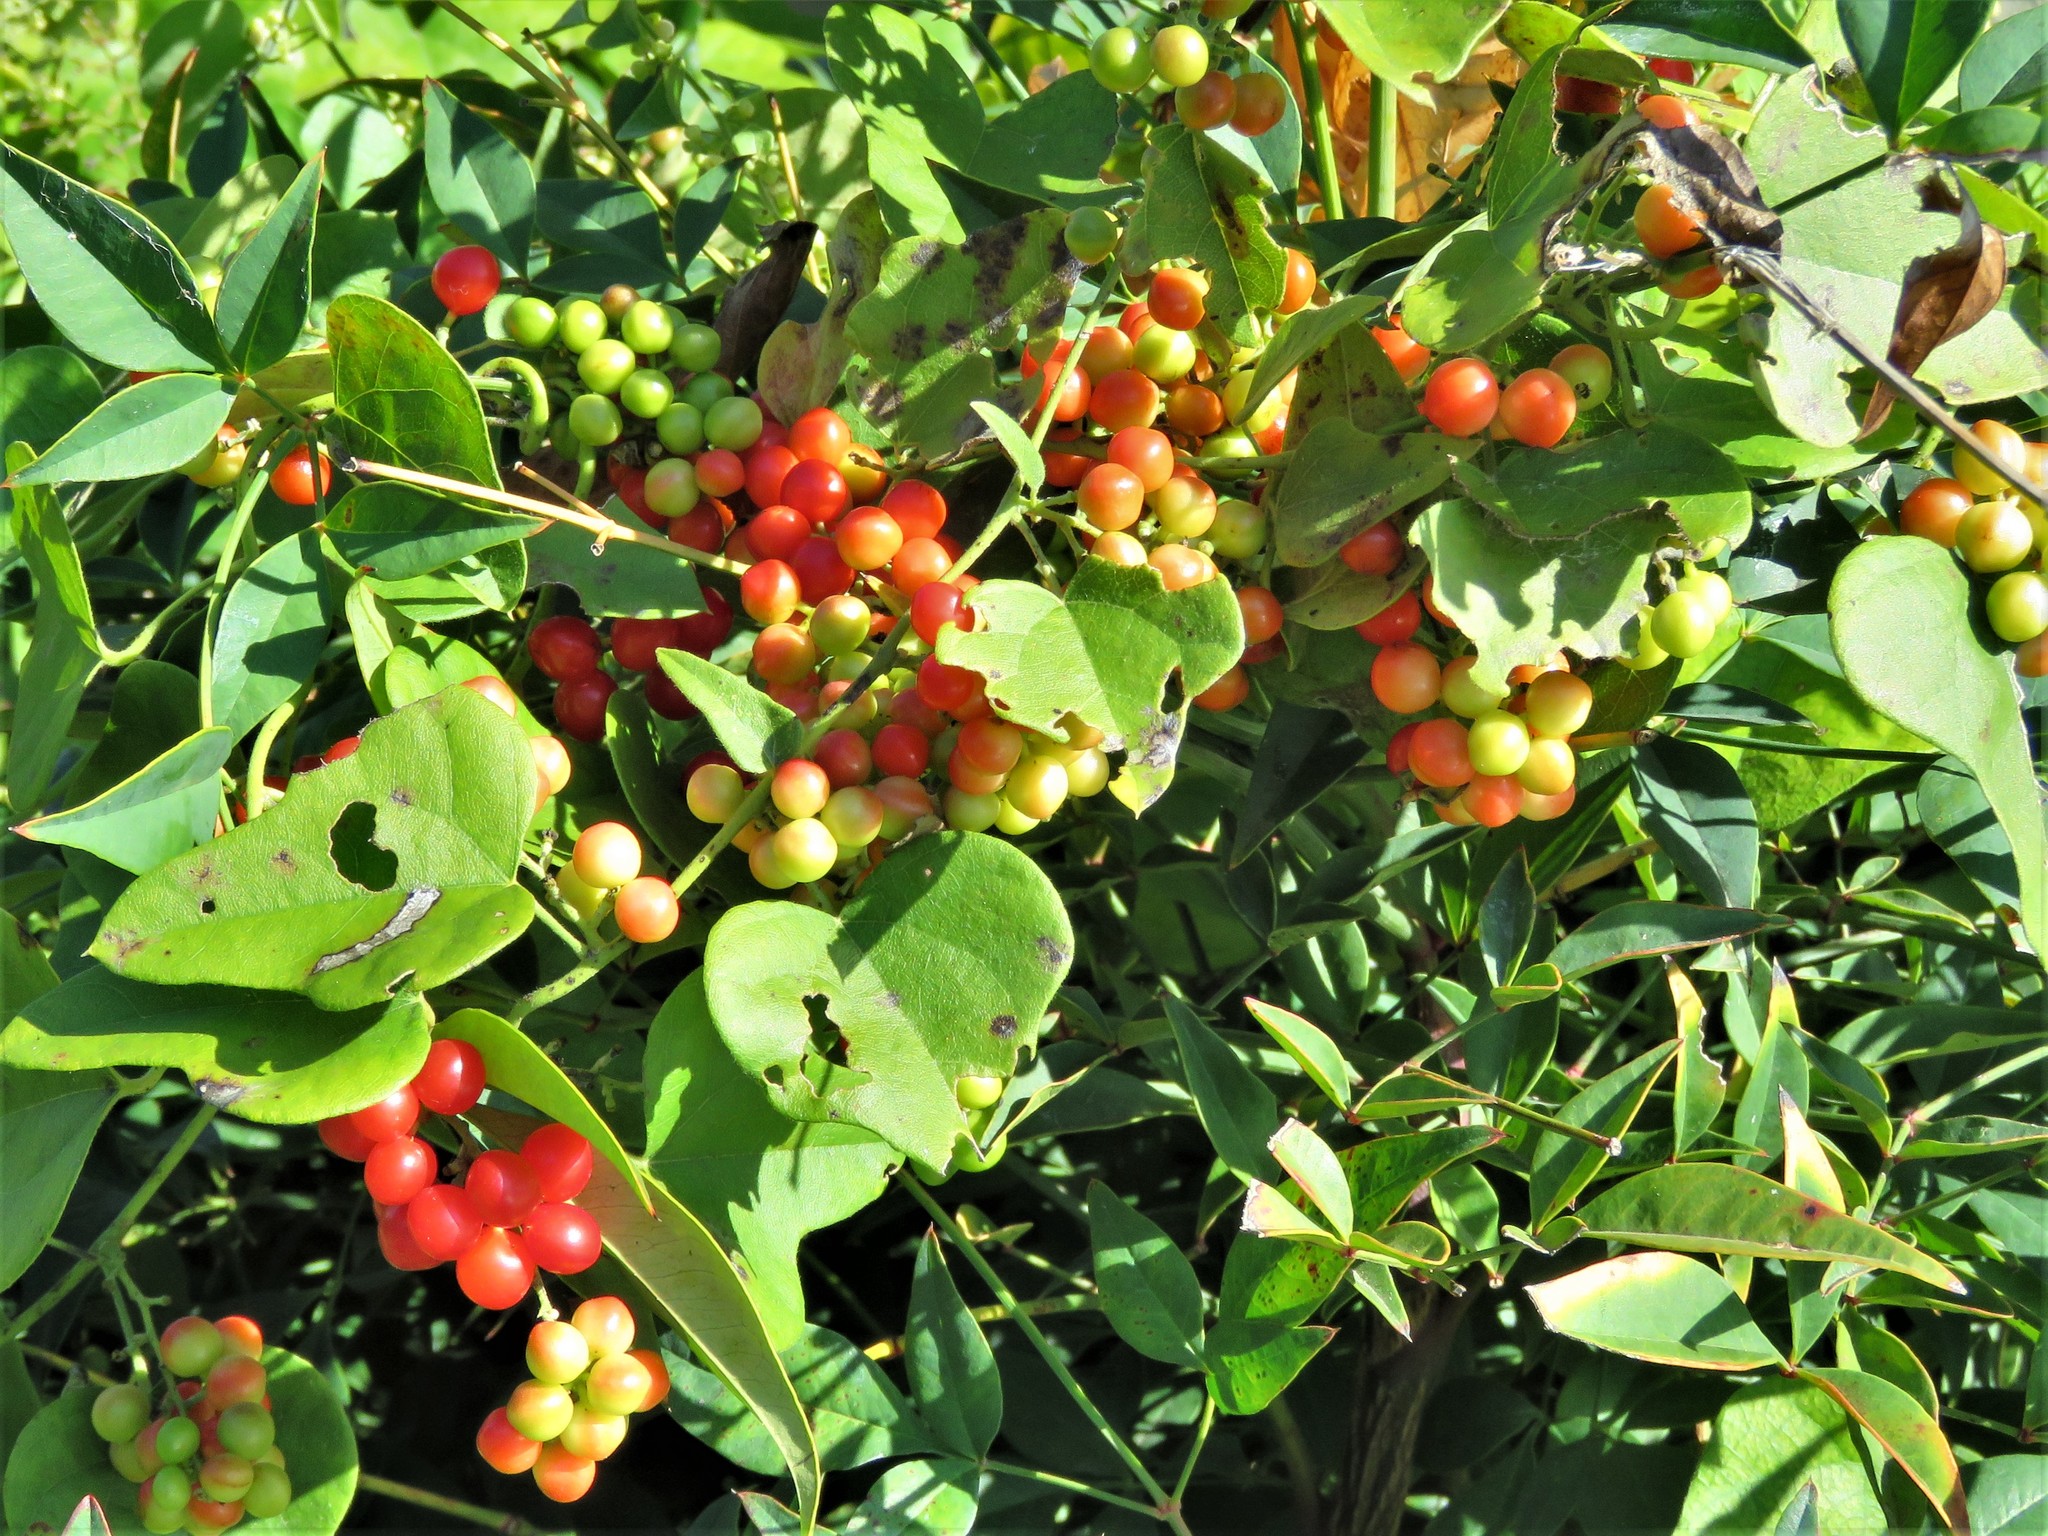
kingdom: Plantae
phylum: Tracheophyta
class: Magnoliopsida
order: Ranunculales
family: Menispermaceae
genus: Cocculus
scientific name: Cocculus carolinus
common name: Carolina moonseed
